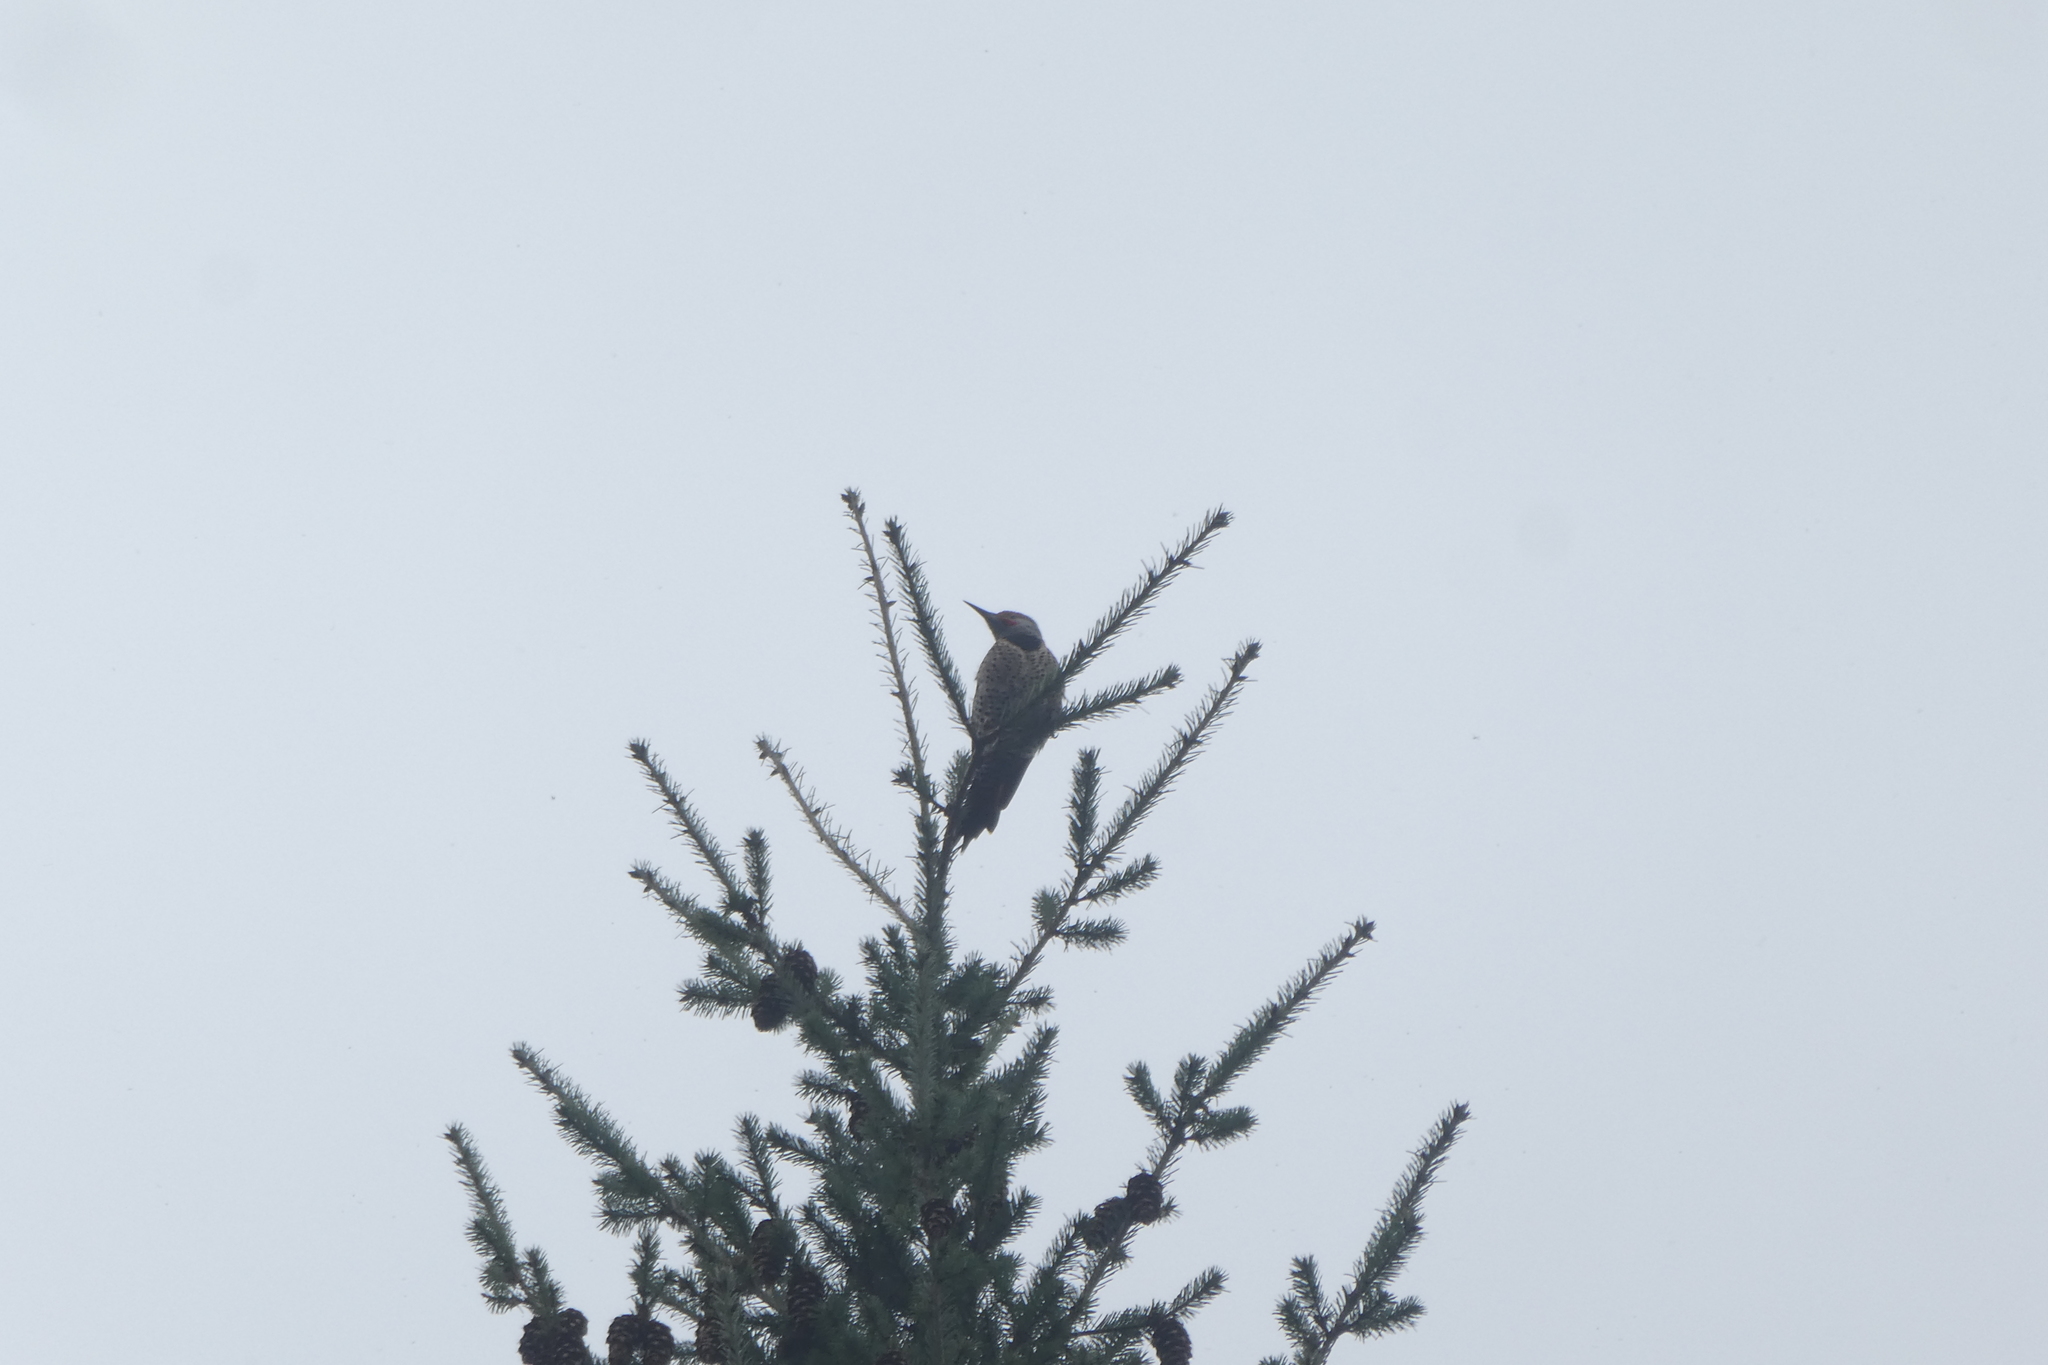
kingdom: Animalia
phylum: Chordata
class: Aves
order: Piciformes
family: Picidae
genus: Colaptes
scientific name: Colaptes auratus
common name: Northern flicker
